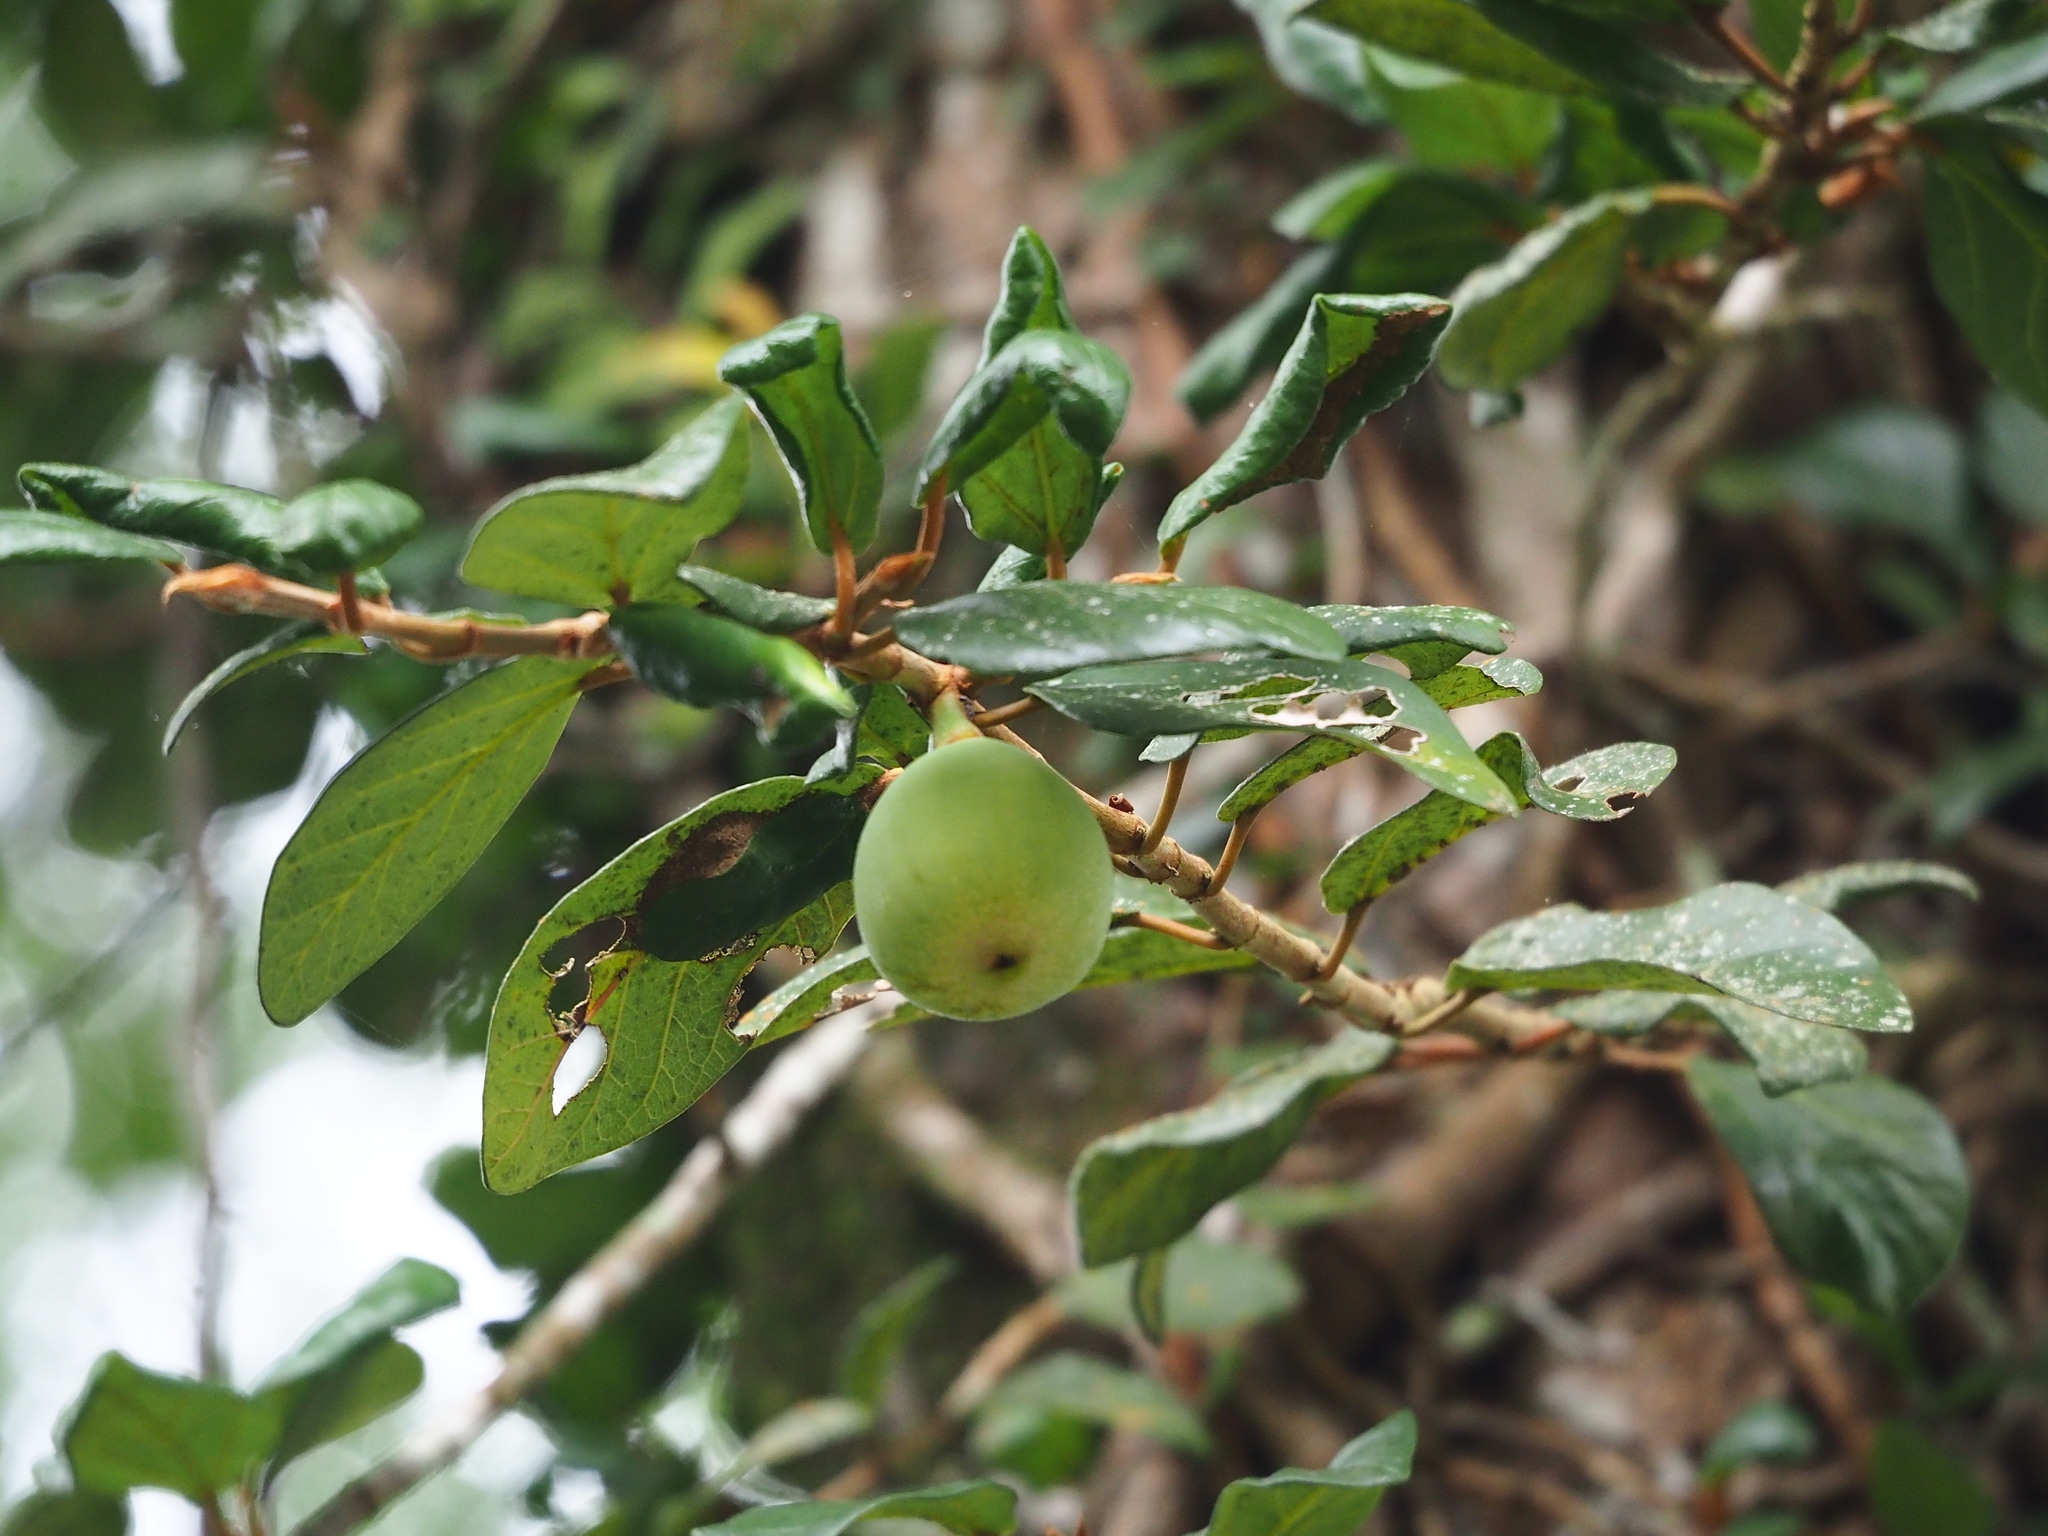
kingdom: Plantae
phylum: Tracheophyta
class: Magnoliopsida
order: Rosales
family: Moraceae
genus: Ficus
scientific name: Ficus pumila
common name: Climbingfig
